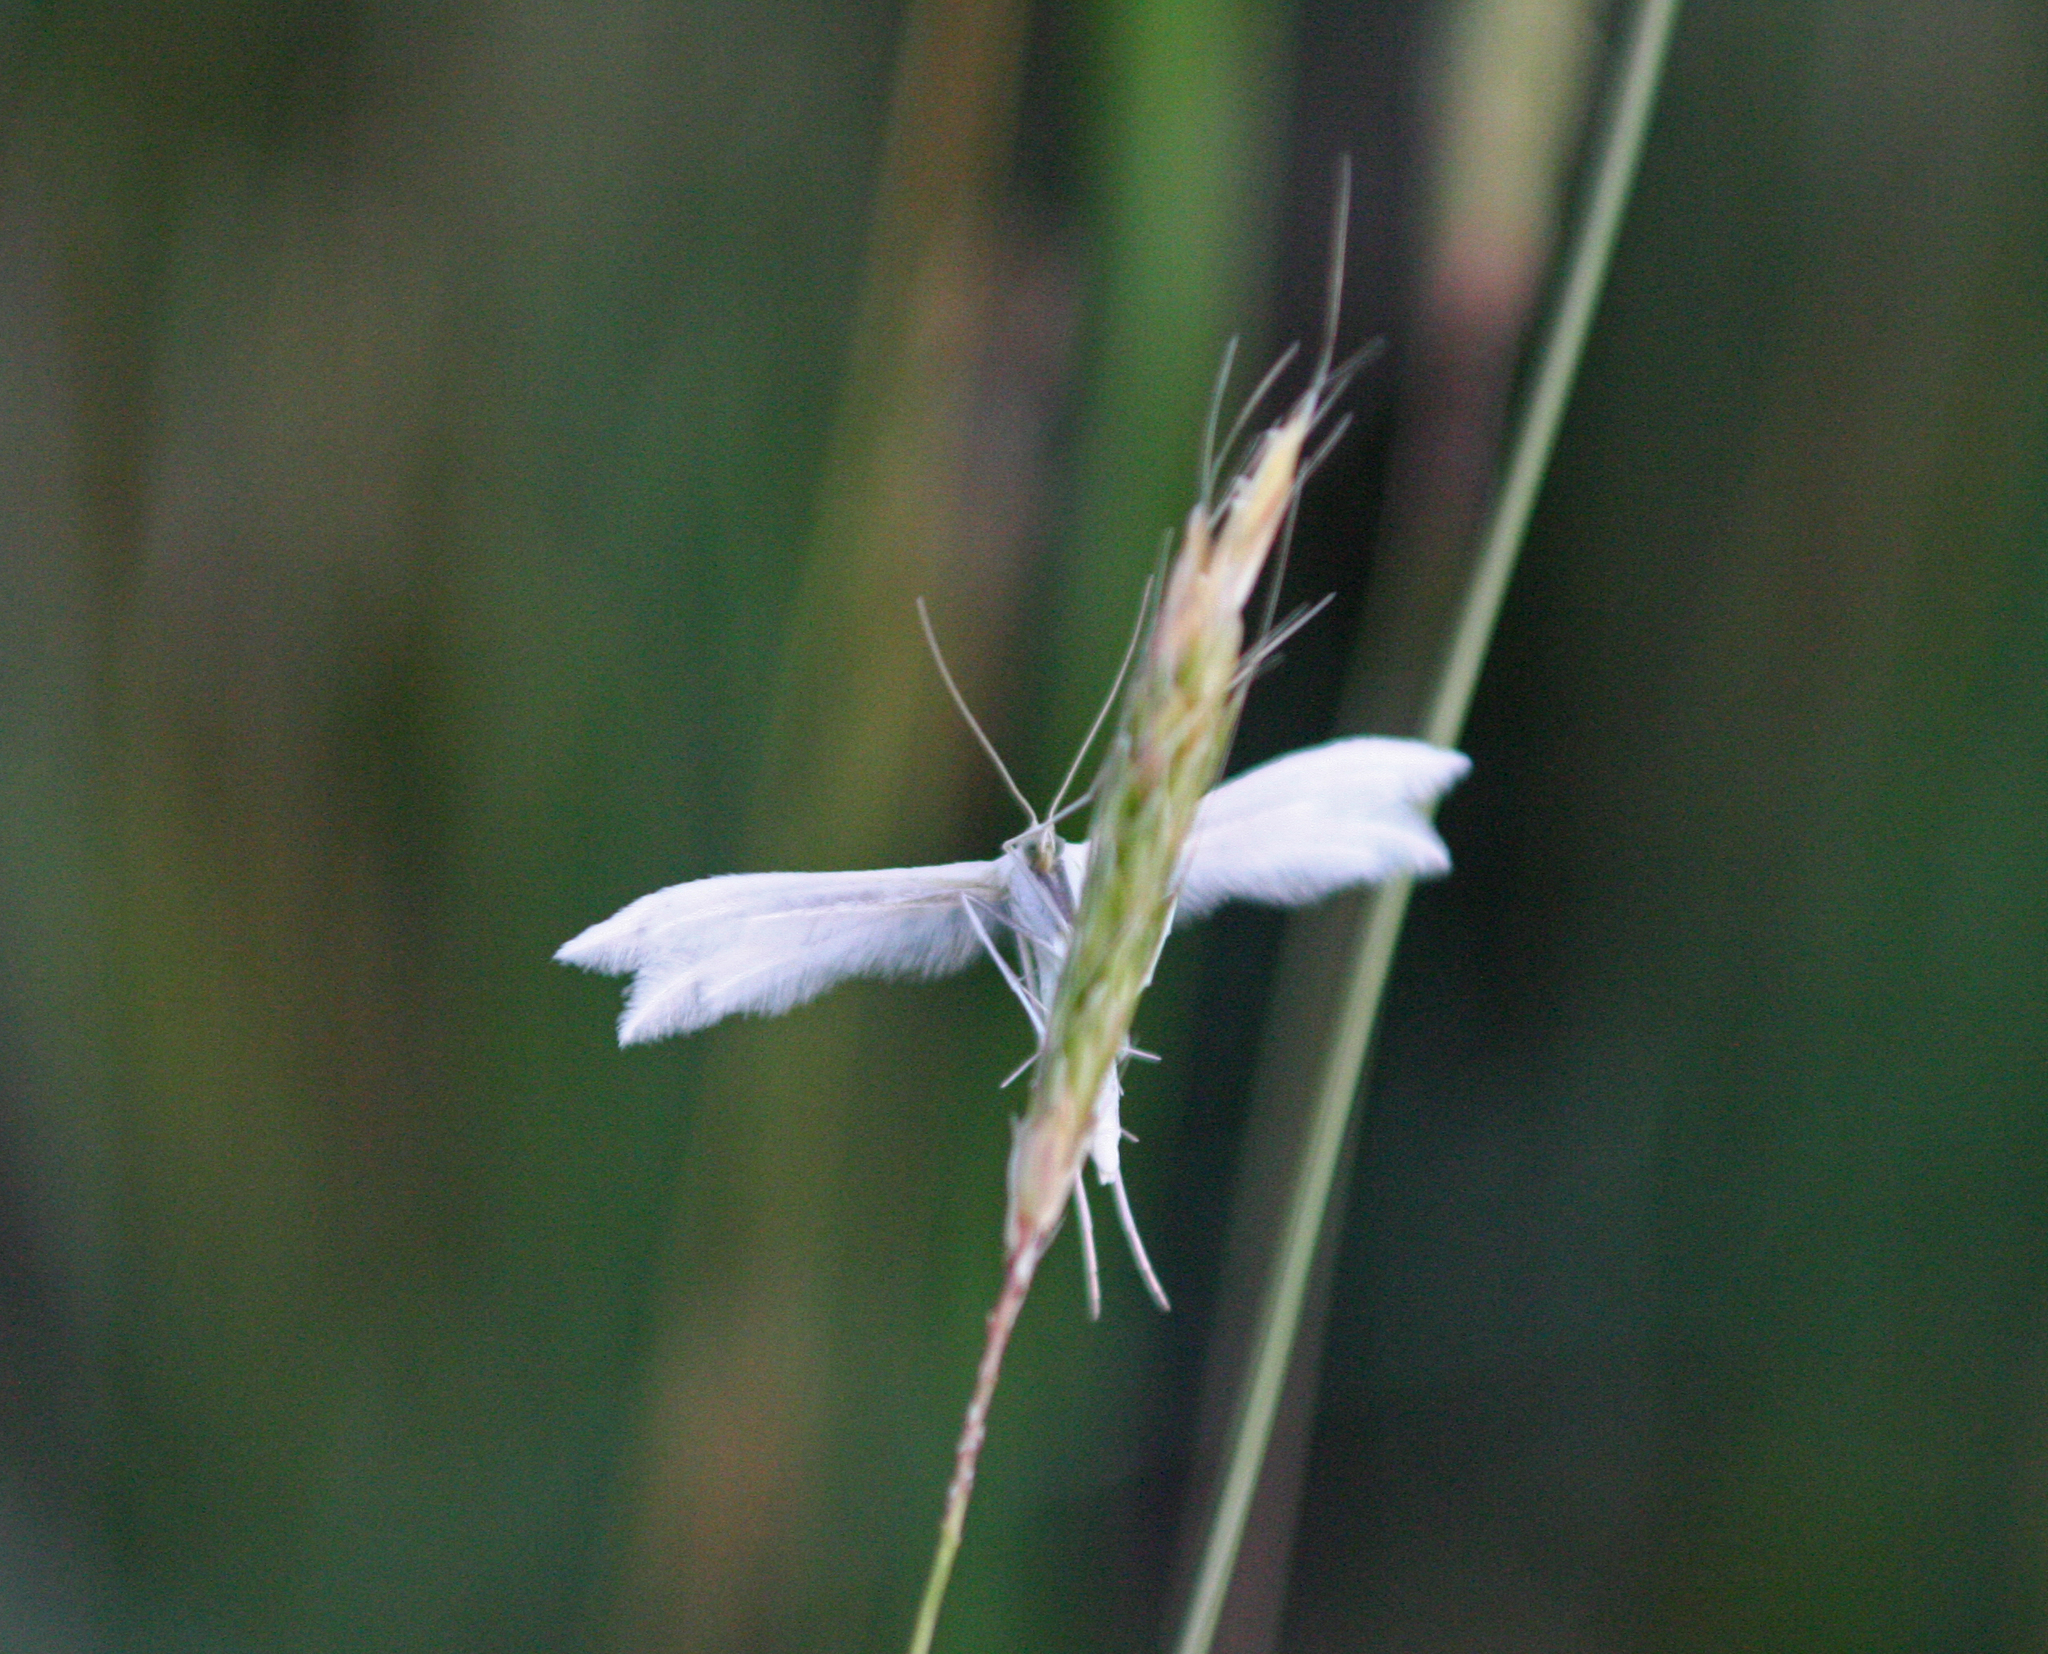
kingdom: Animalia
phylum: Arthropoda
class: Insecta
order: Lepidoptera
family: Pterophoridae
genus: Pterophorus
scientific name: Pterophorus pentadactyla
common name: White plume moth
